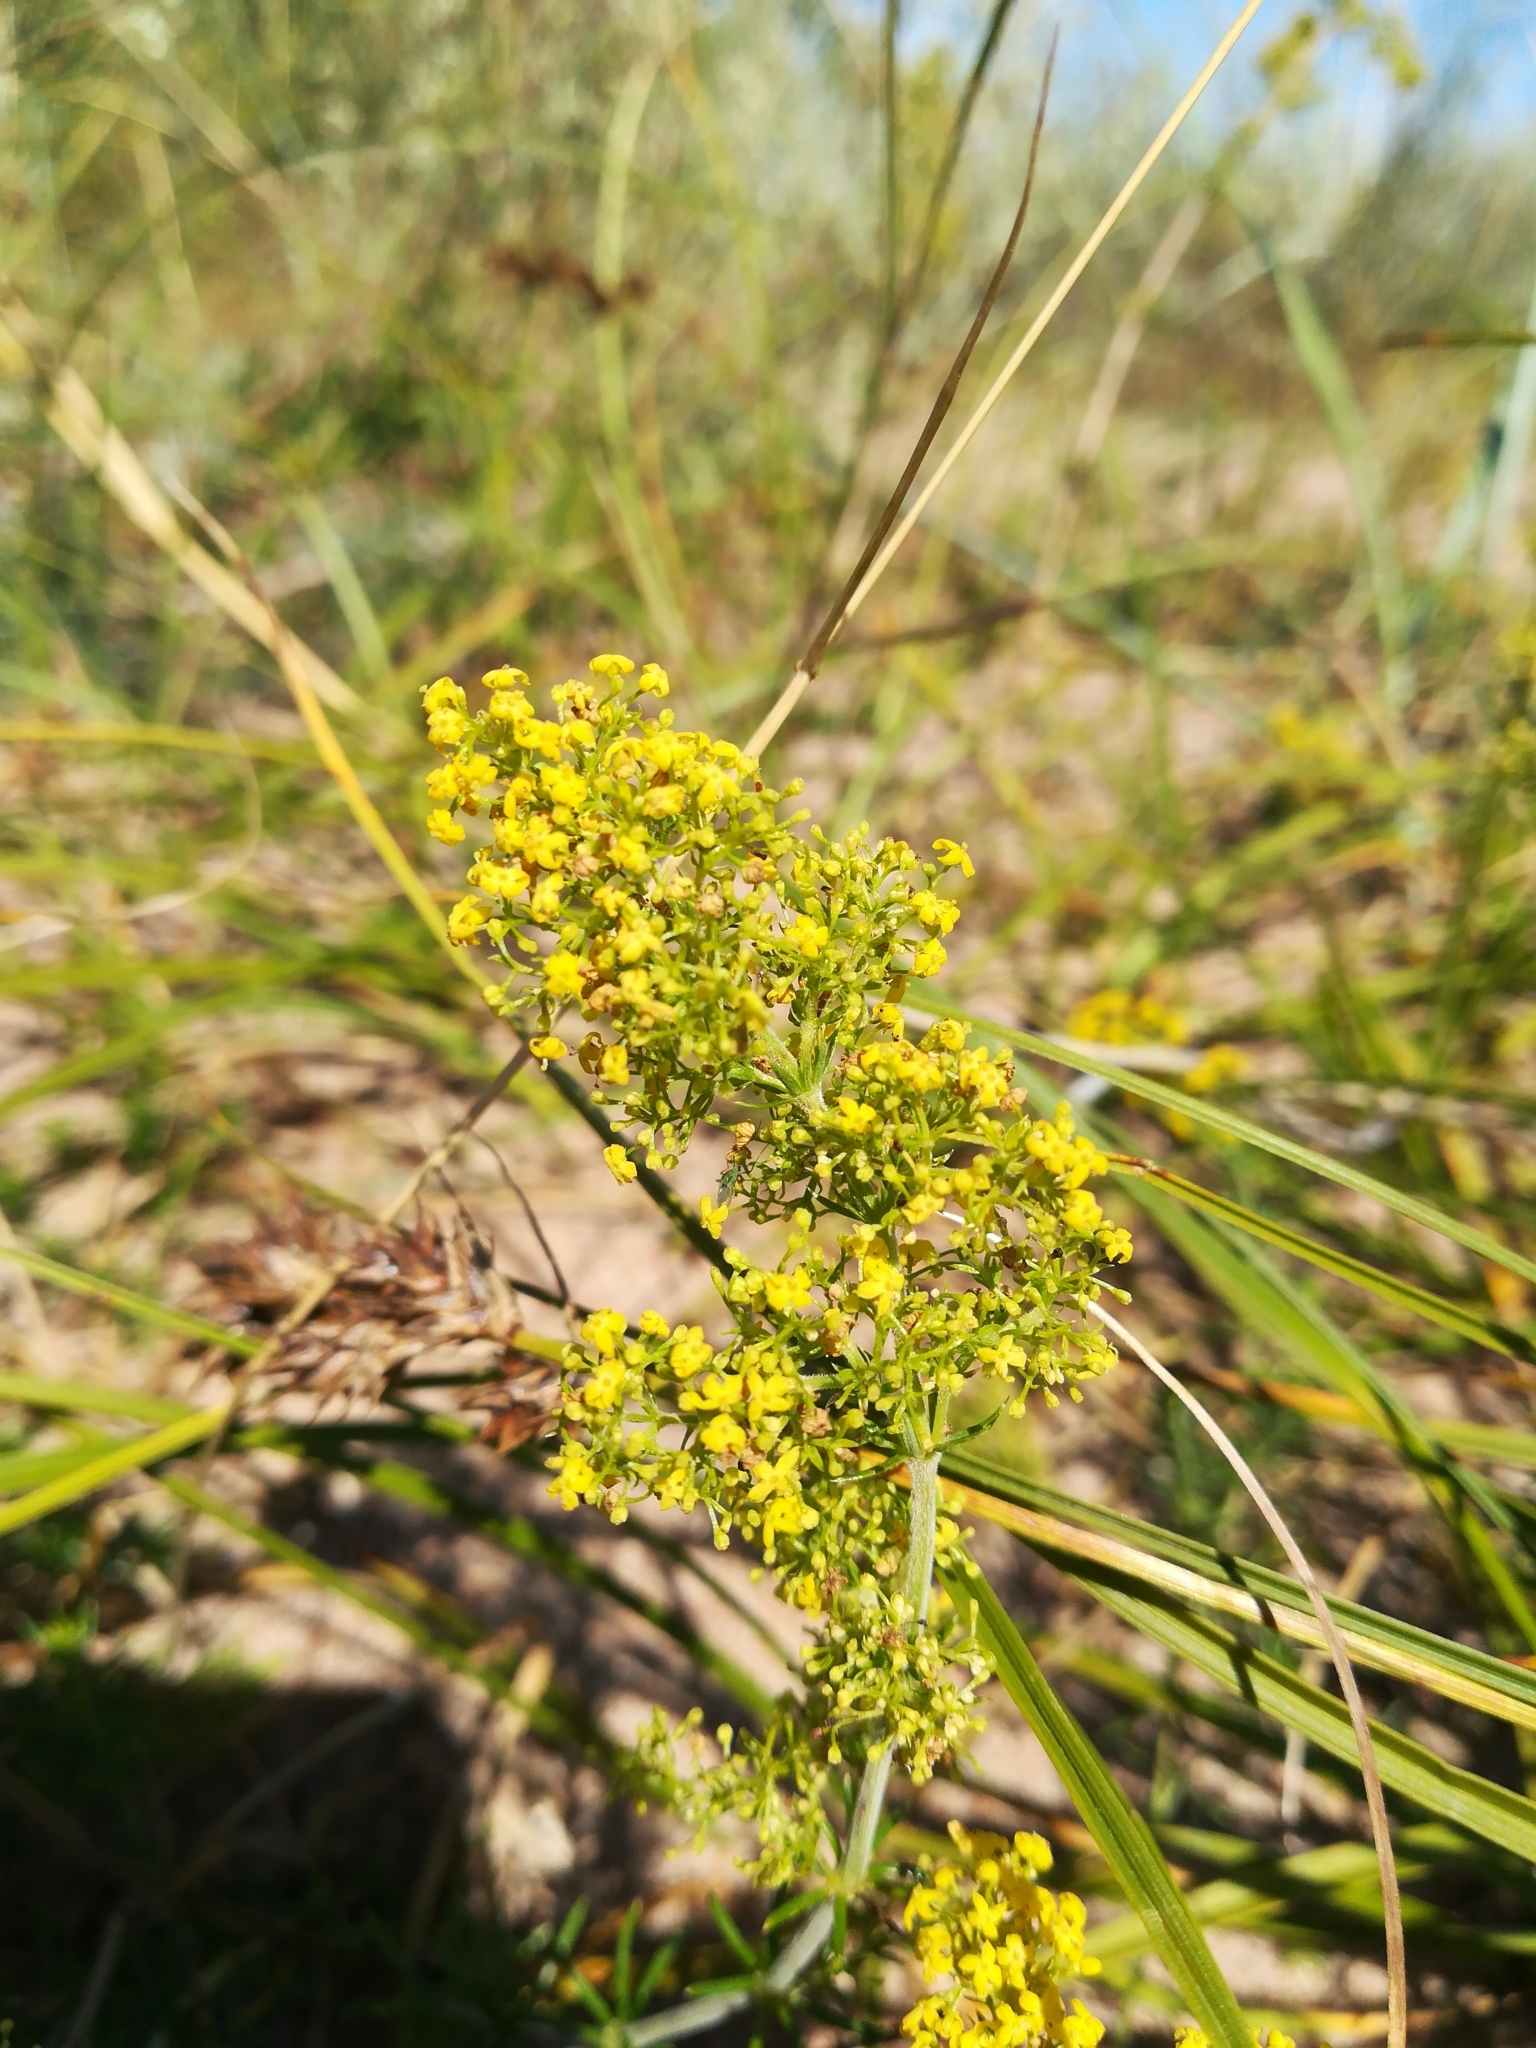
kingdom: Plantae
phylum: Tracheophyta
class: Magnoliopsida
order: Gentianales
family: Rubiaceae
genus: Galium
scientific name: Galium verum
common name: Lady's bedstraw
